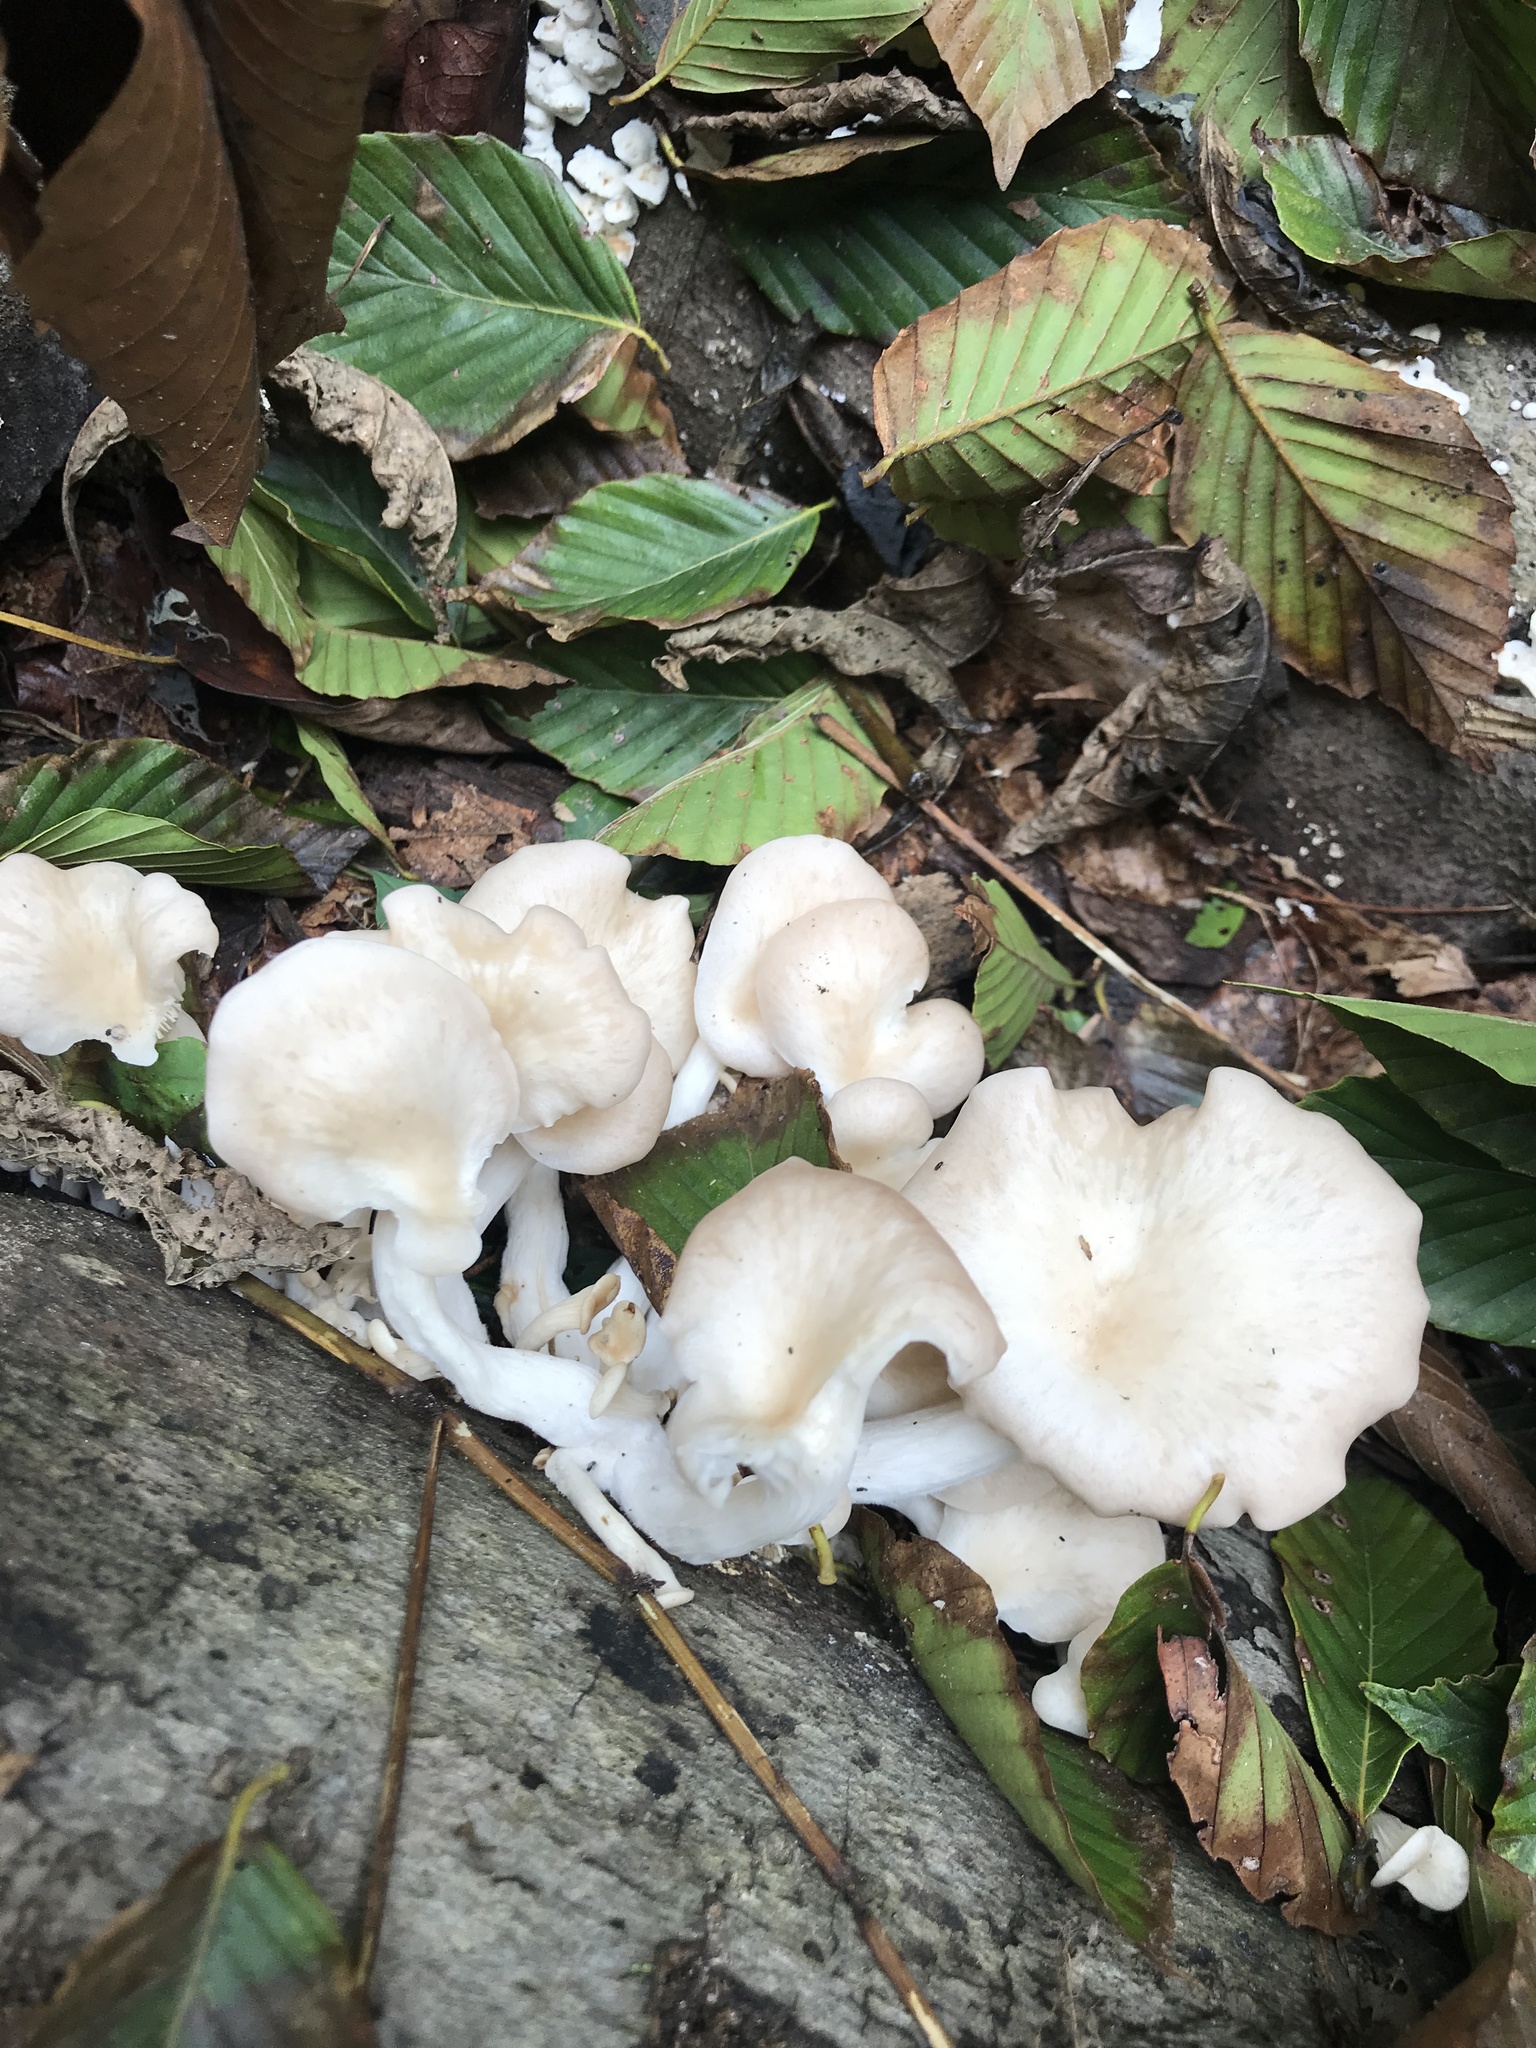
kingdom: Fungi
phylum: Basidiomycota
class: Agaricomycetes
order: Agaricales
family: Pleurotaceae
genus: Pleurotus
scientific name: Pleurotus pulmonarius
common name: Pale oyster
